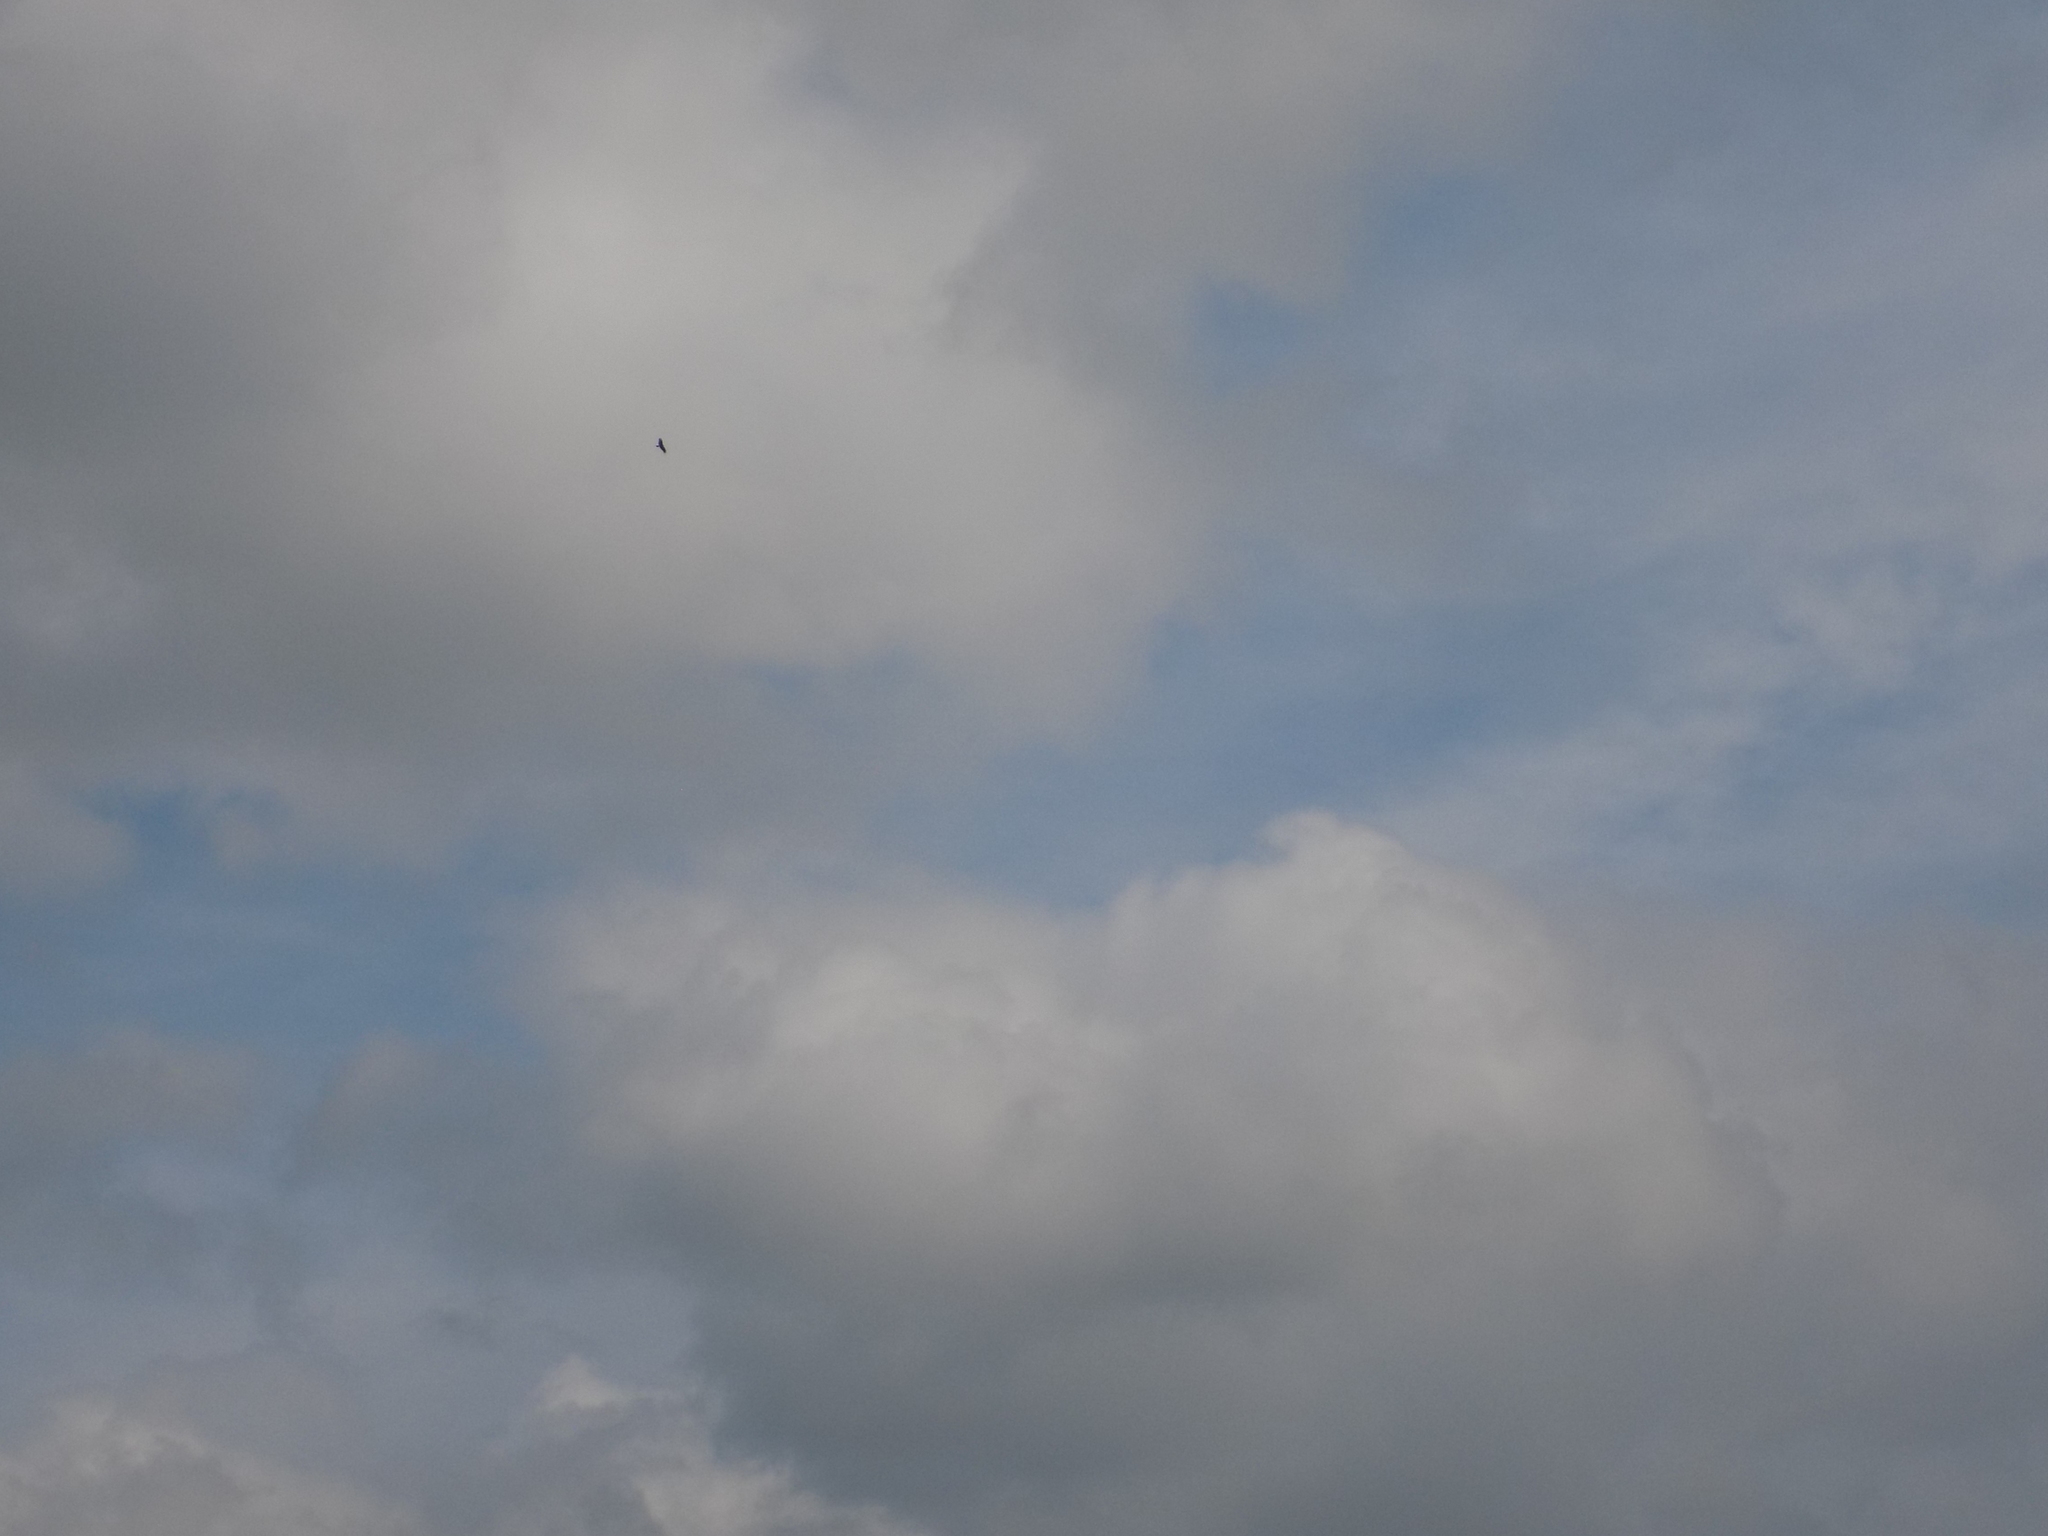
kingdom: Animalia
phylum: Chordata
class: Aves
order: Accipitriformes
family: Accipitridae
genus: Milvus
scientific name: Milvus migrans
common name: Black kite
